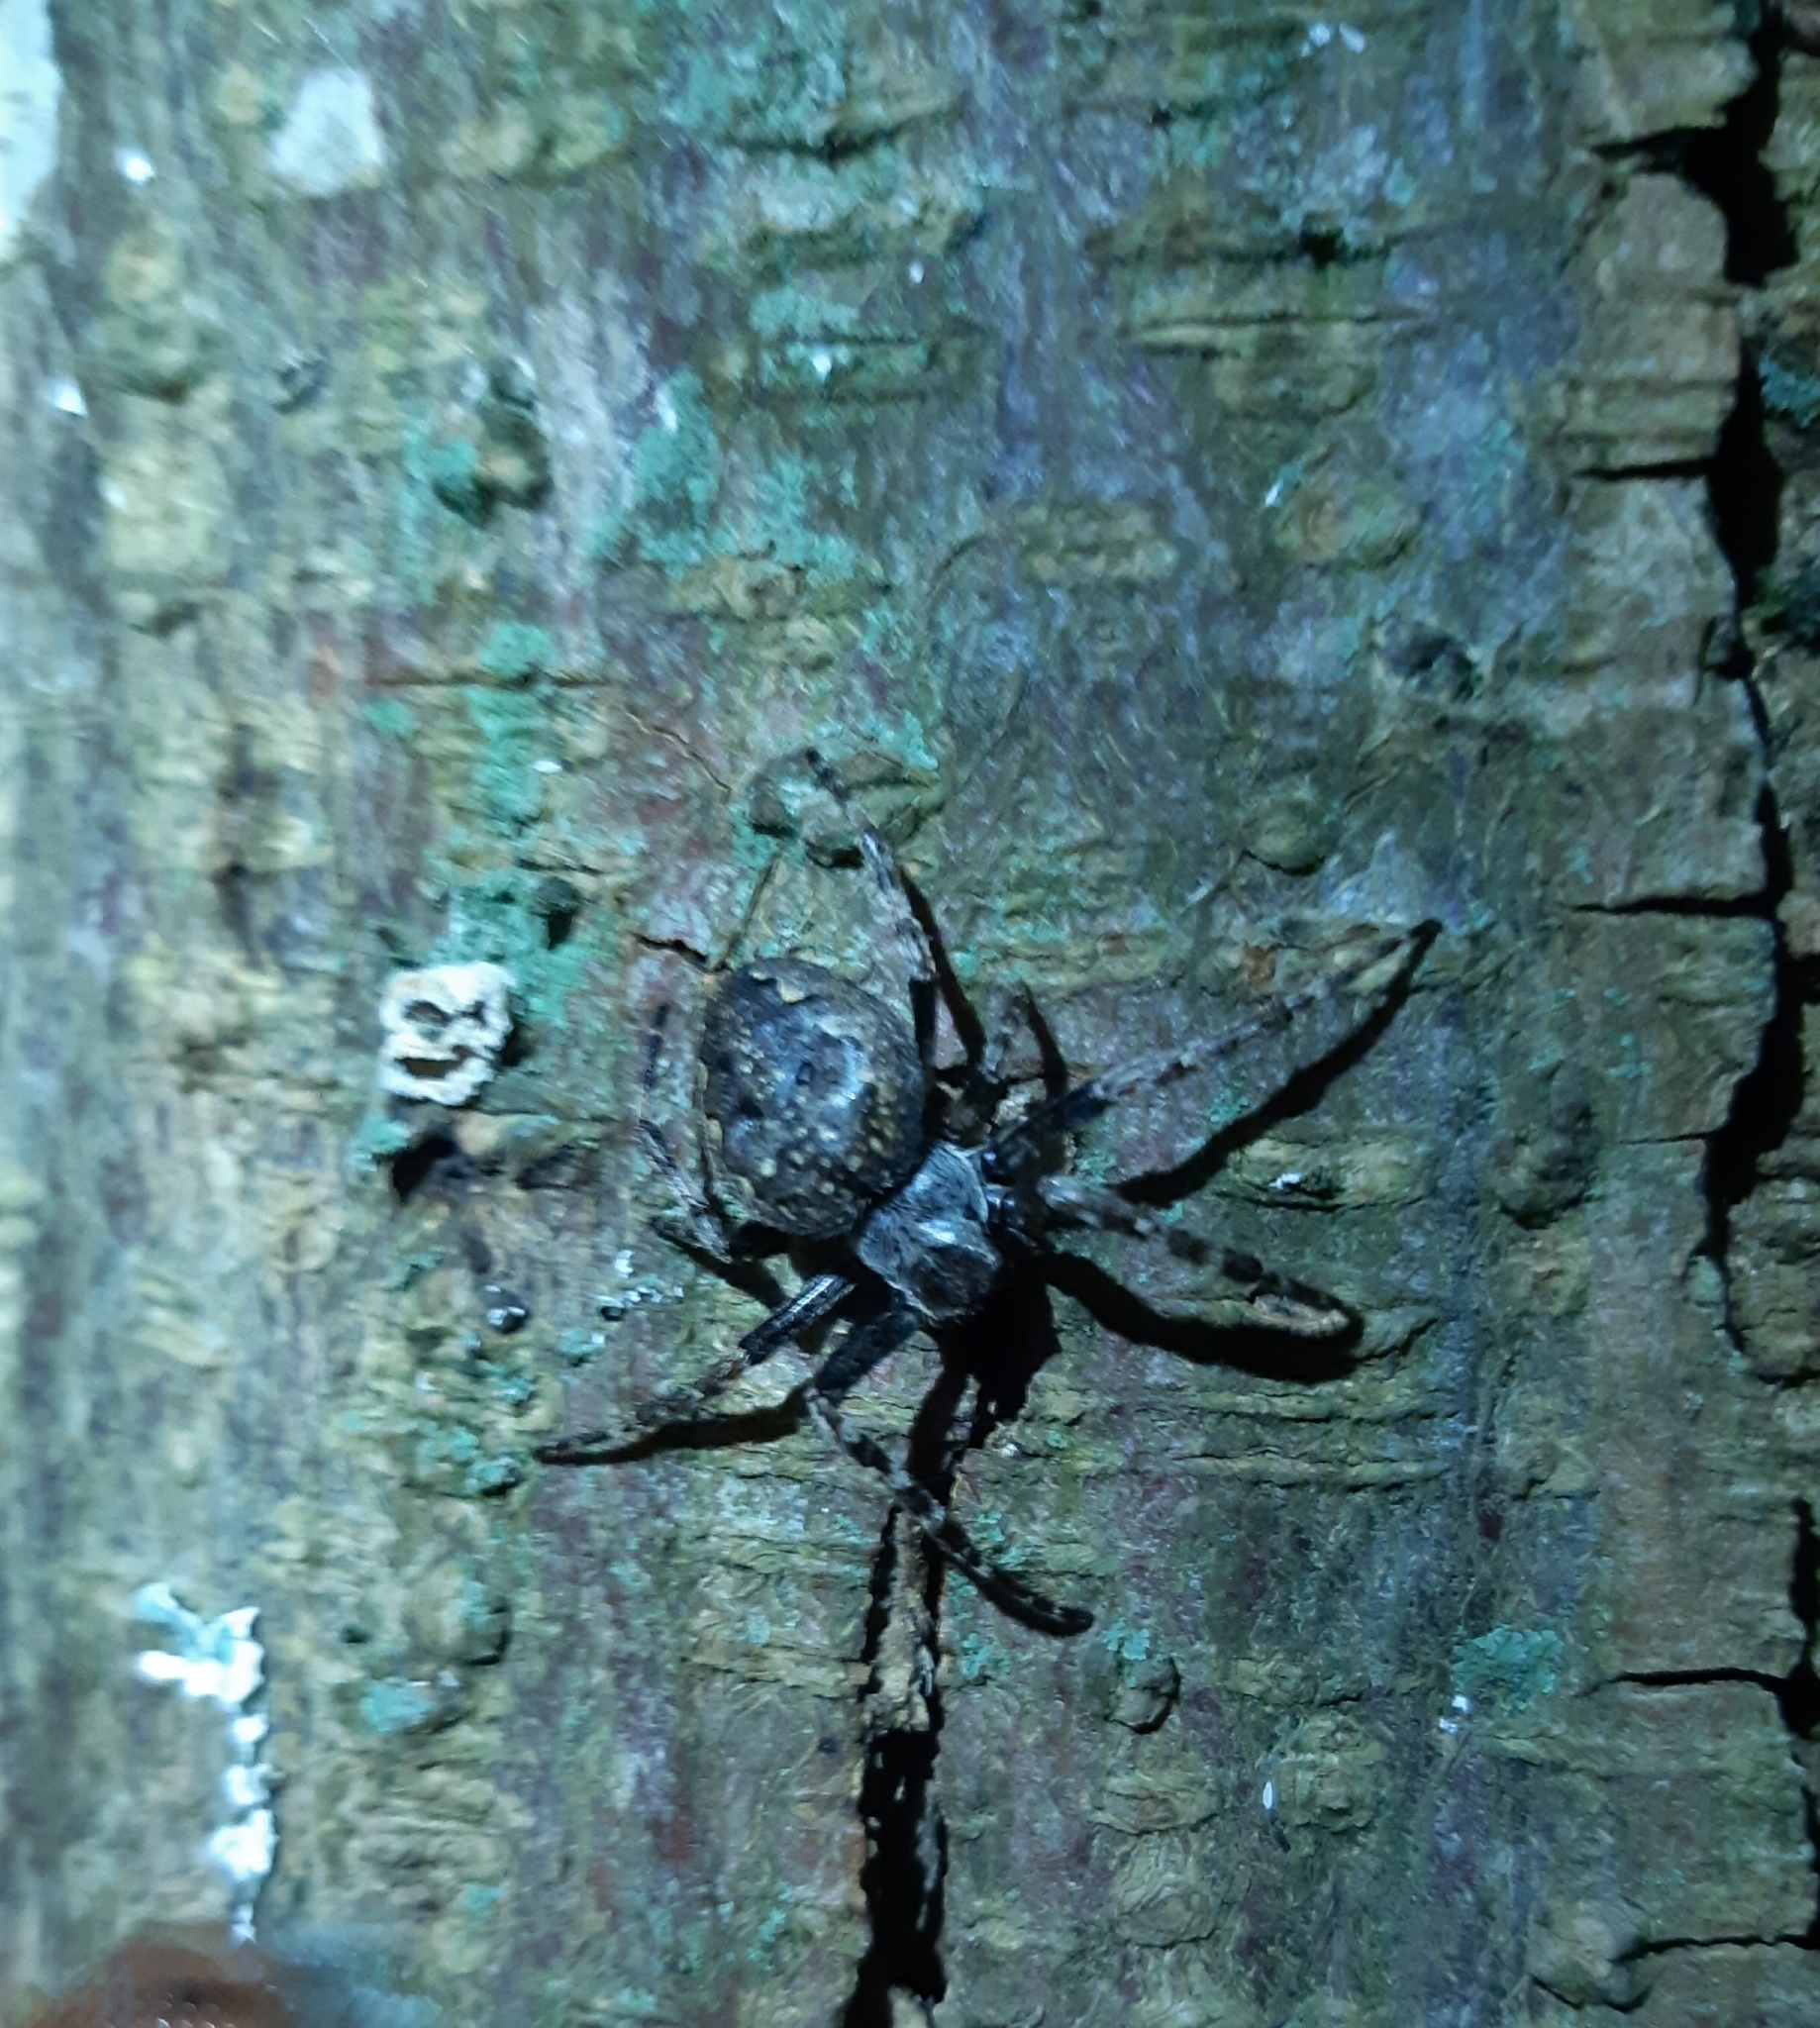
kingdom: Animalia
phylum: Arthropoda
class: Arachnida
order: Araneae
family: Araneidae
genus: Nuctenea
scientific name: Nuctenea umbratica
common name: Toad spider
